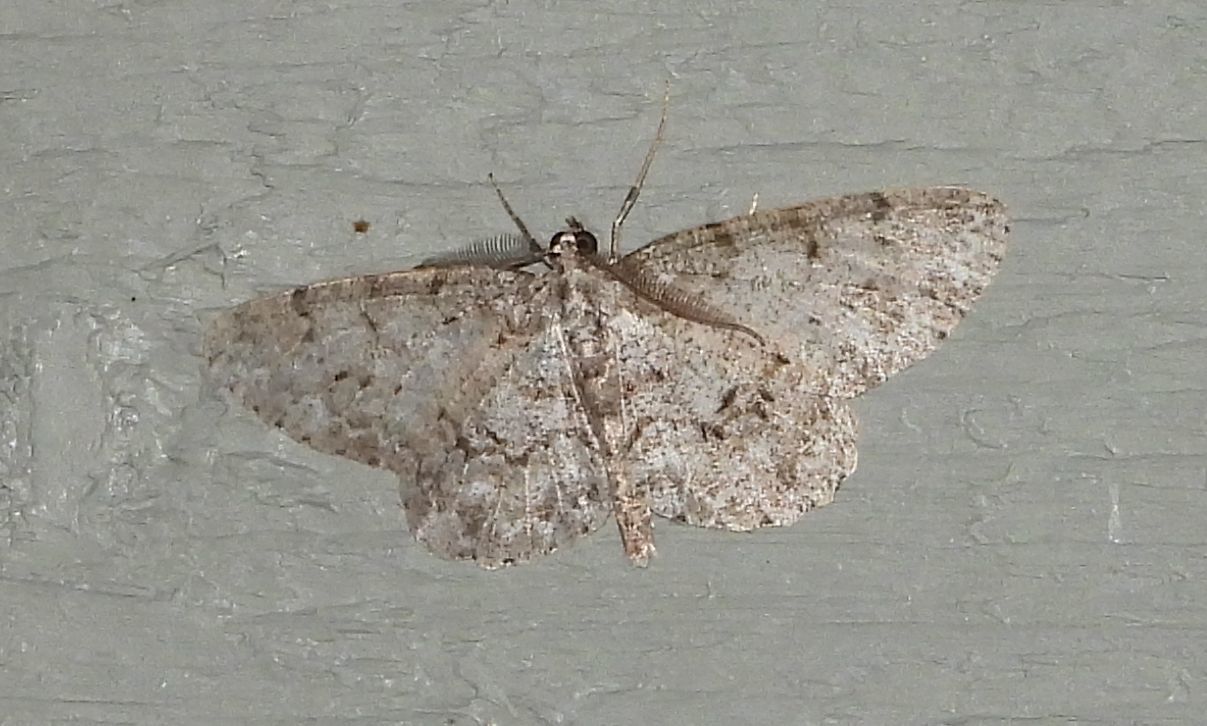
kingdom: Animalia
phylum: Arthropoda
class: Insecta
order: Lepidoptera
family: Geometridae
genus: Protoboarmia
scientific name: Protoboarmia porcelaria
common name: Porcelain gray
